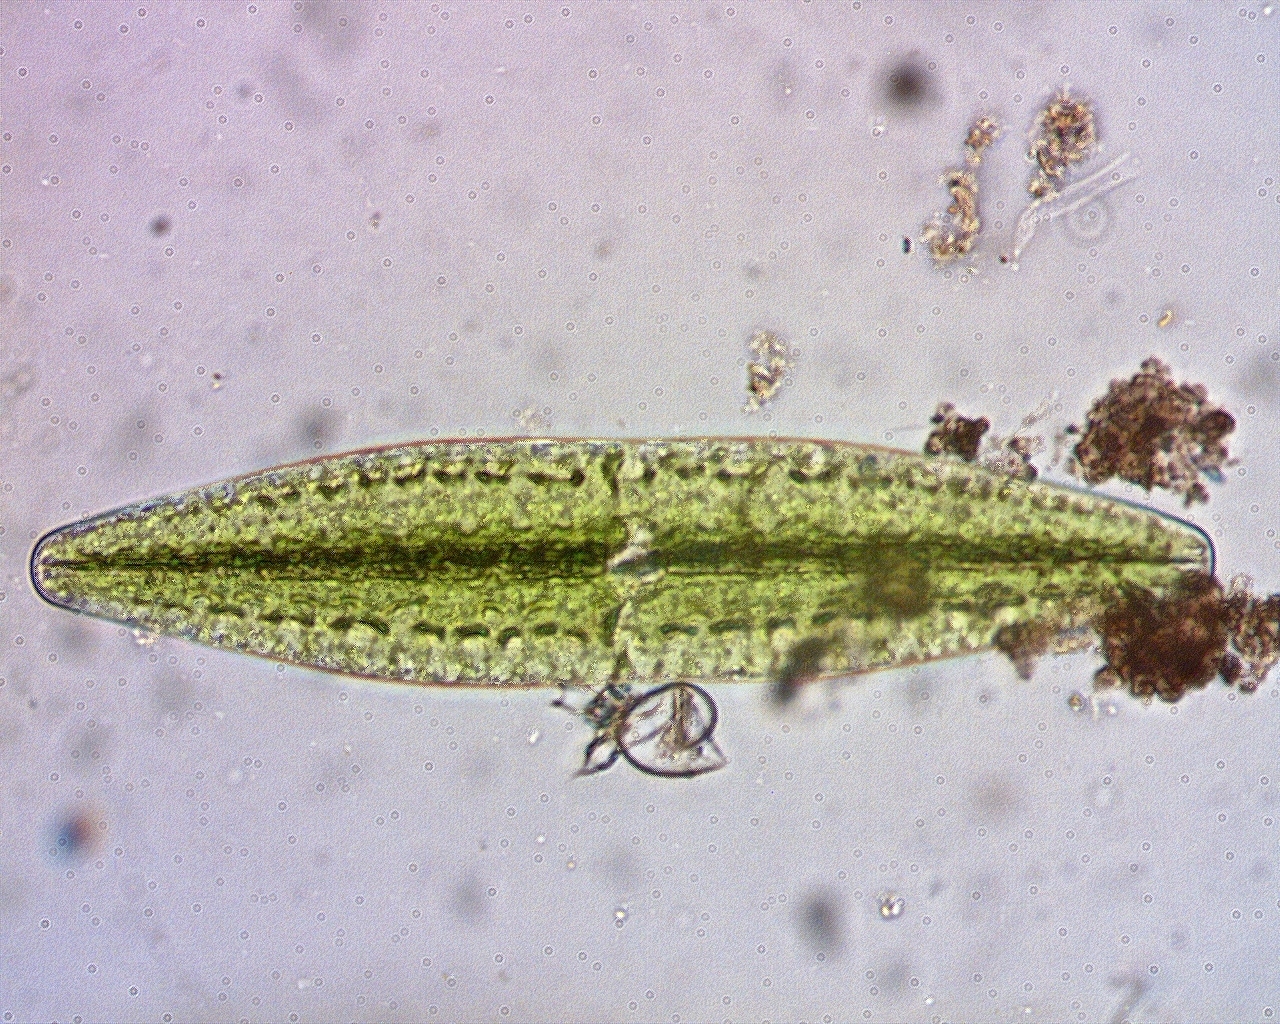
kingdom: Plantae
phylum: Charophyta
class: Zygnematophyceae
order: Zygnematales
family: Mesotaeniaceae
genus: Netrium
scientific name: Netrium digitus
